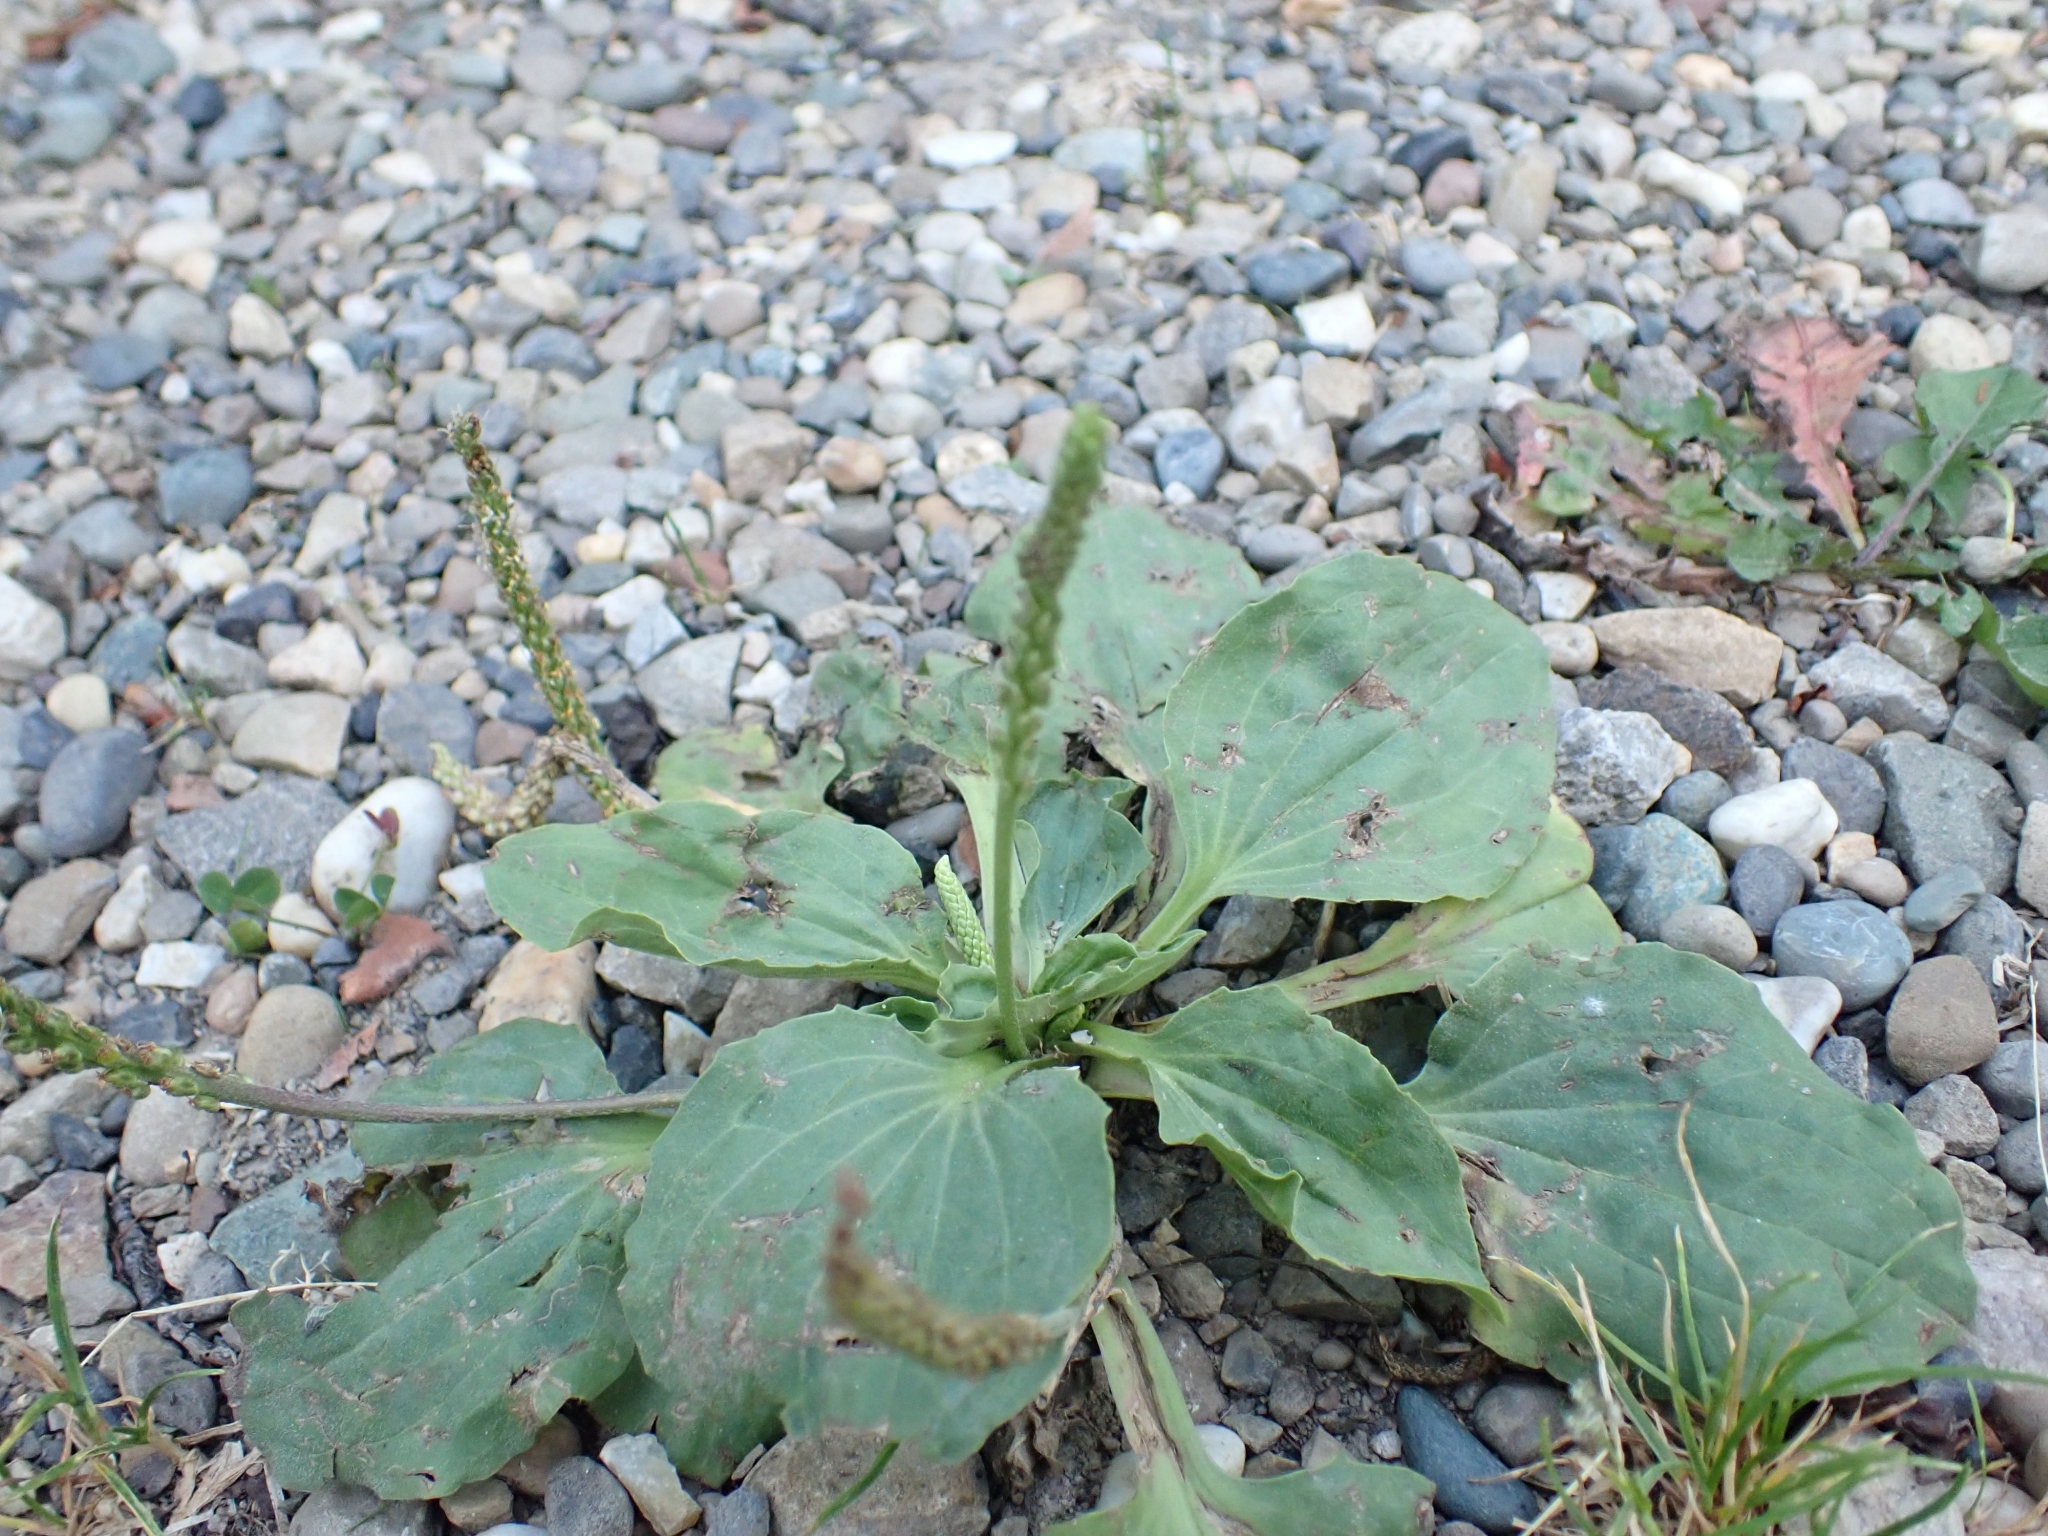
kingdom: Plantae
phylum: Tracheophyta
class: Magnoliopsida
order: Lamiales
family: Plantaginaceae
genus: Plantago
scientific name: Plantago major
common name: Common plantain
